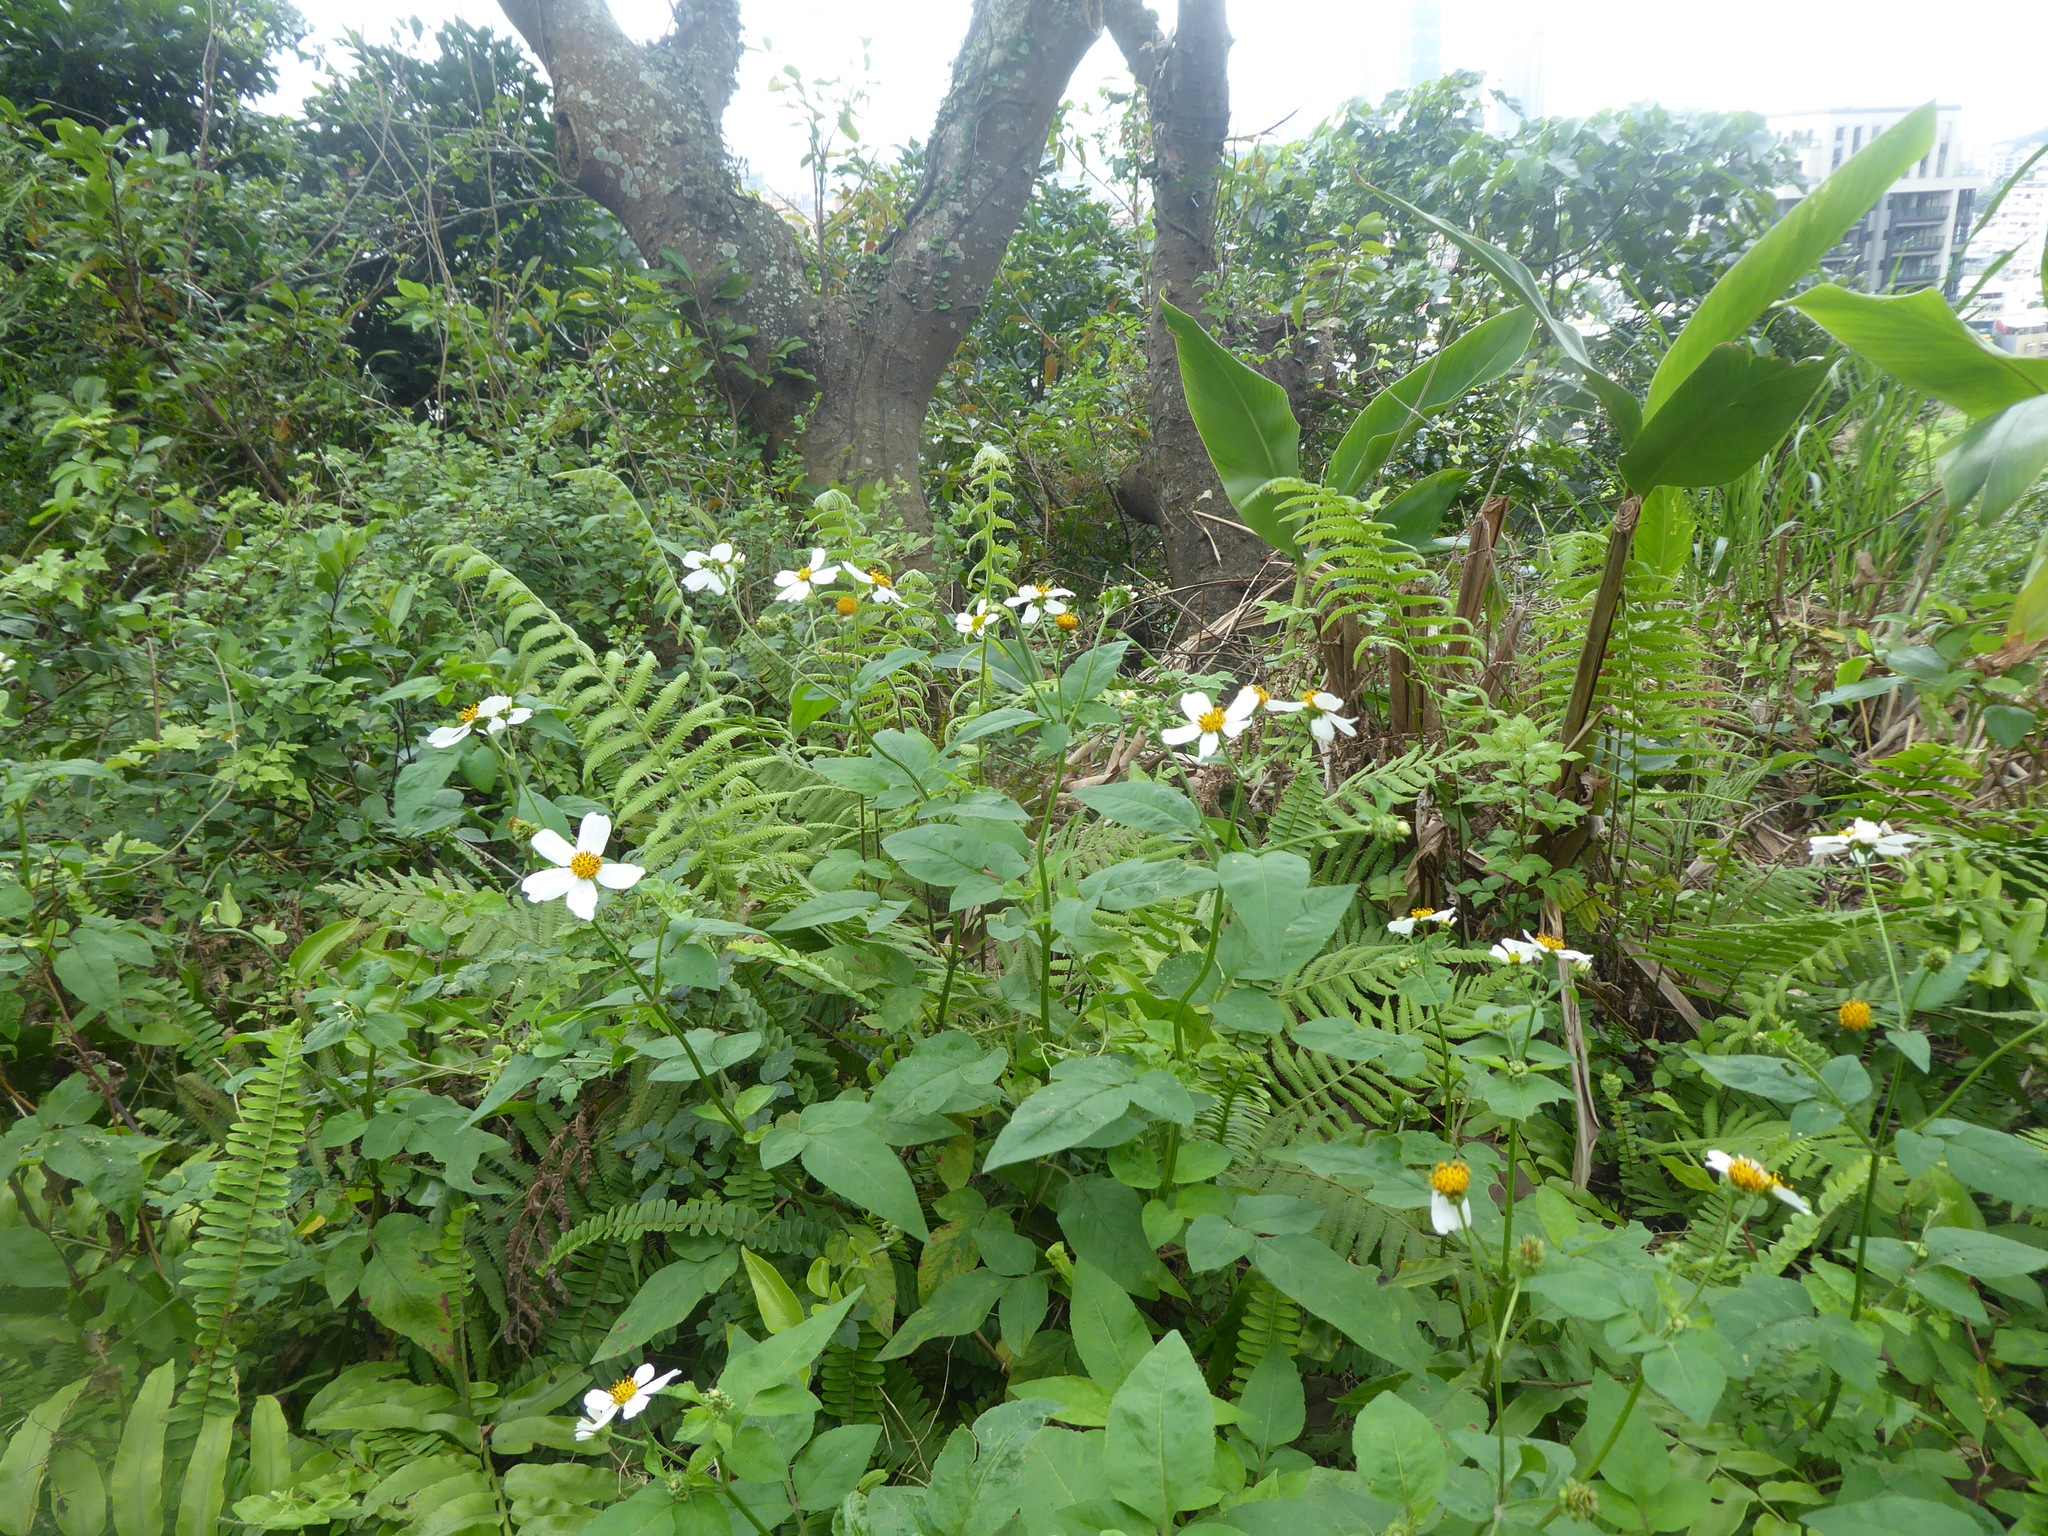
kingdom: Plantae
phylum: Tracheophyta
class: Magnoliopsida
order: Asterales
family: Asteraceae
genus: Bidens
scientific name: Bidens alba
